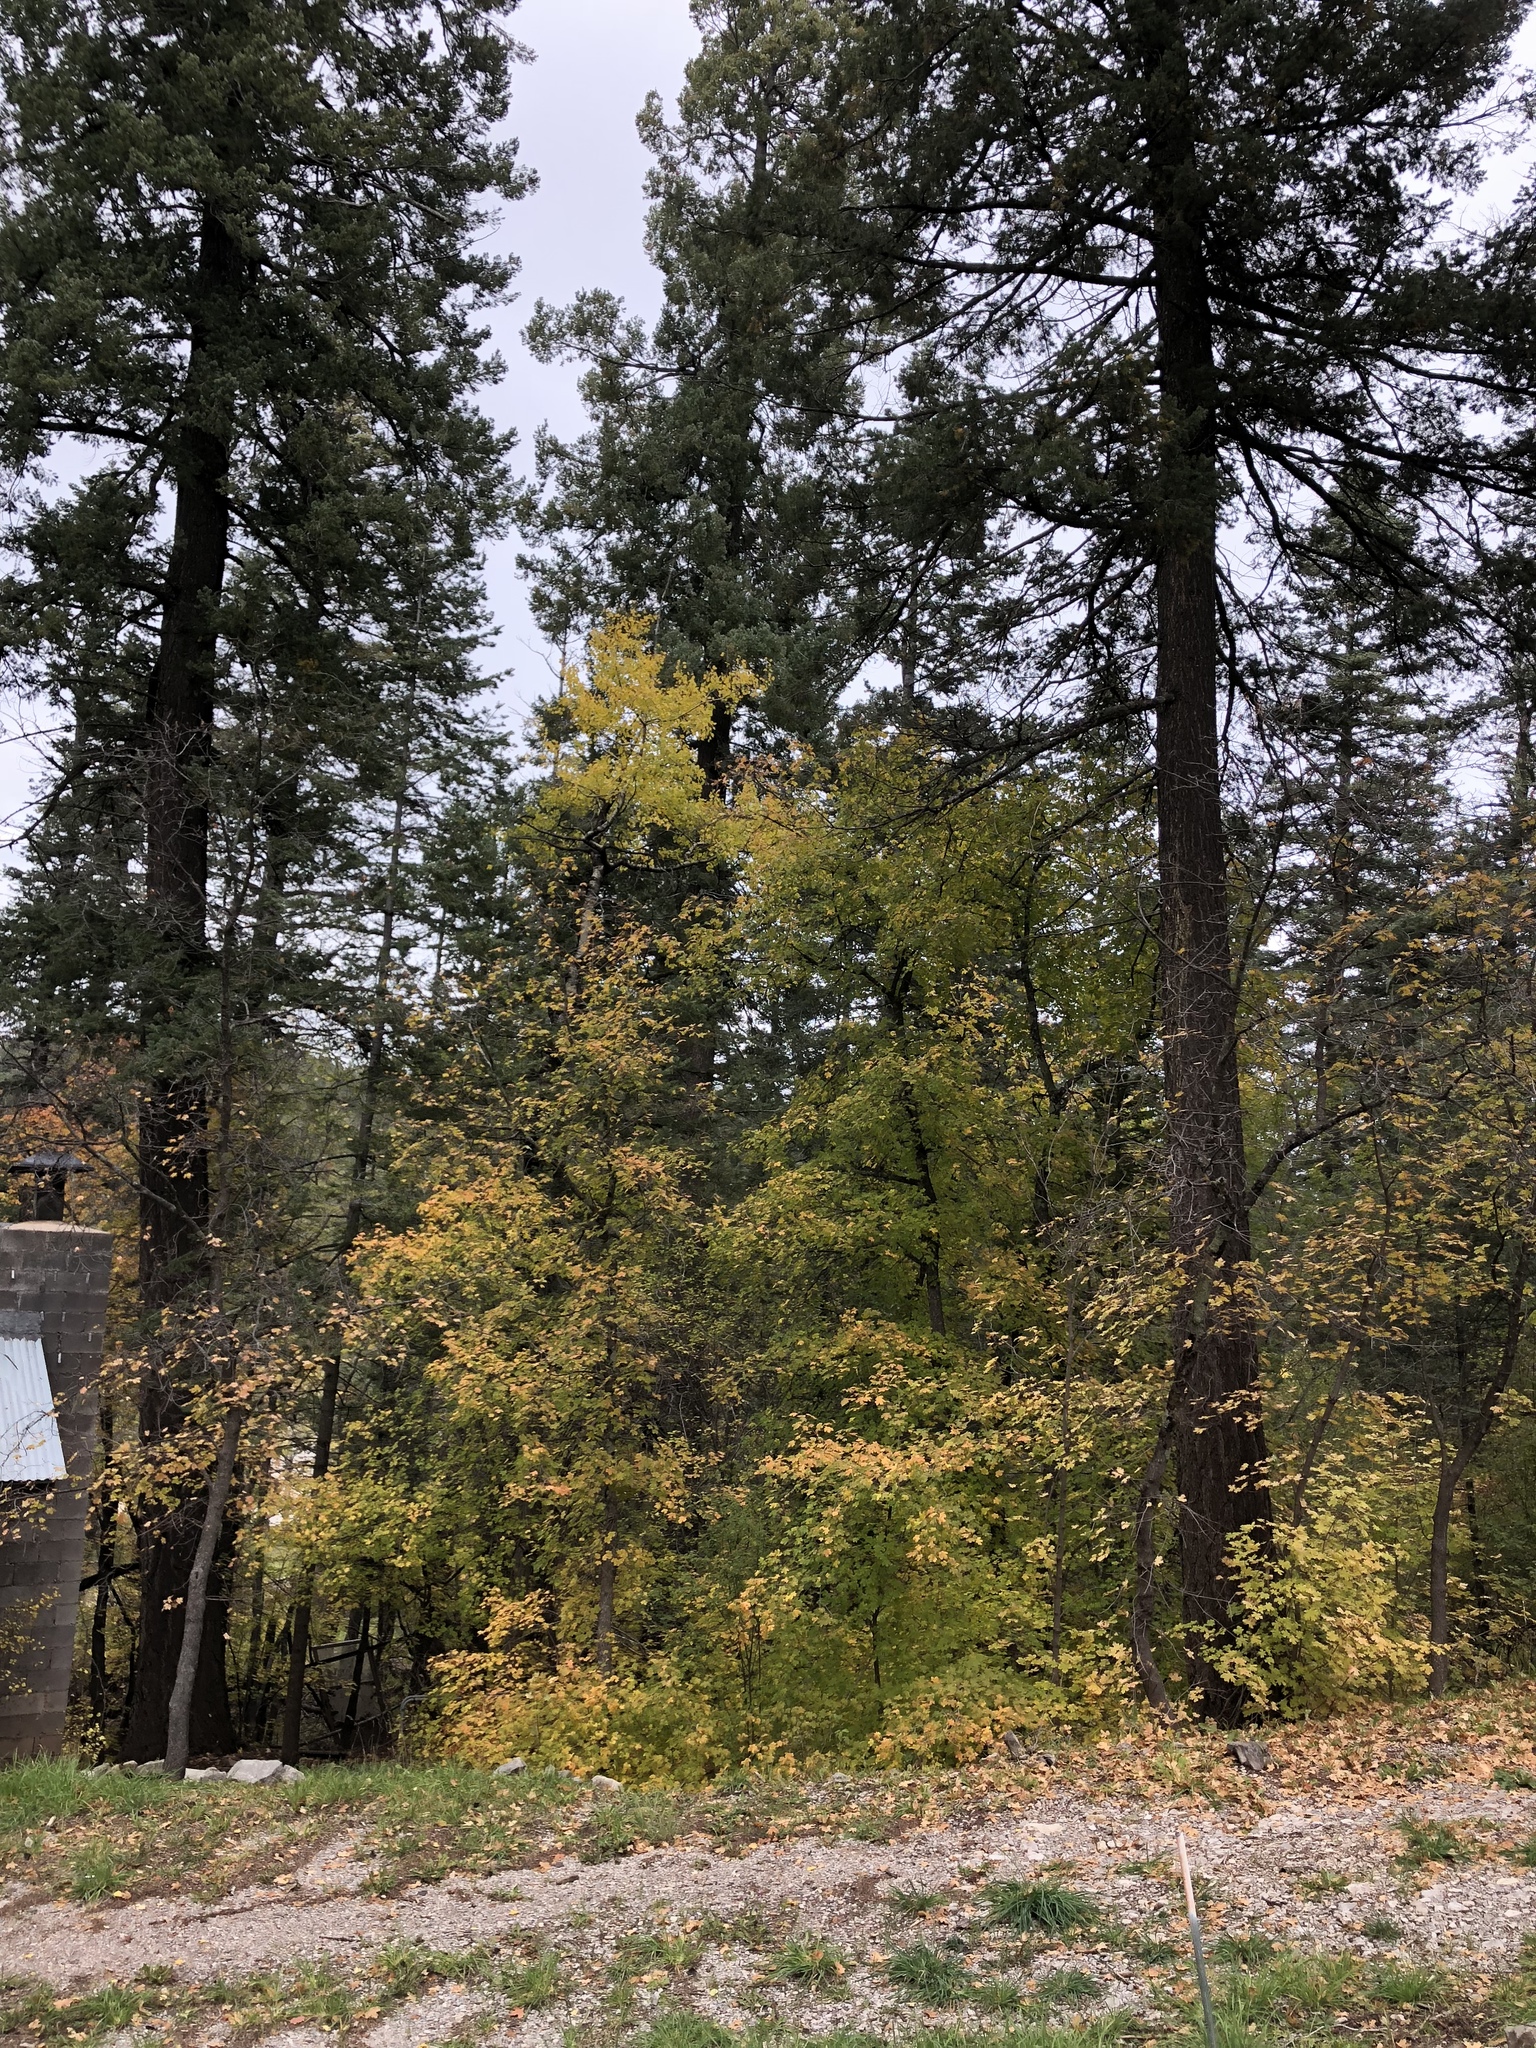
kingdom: Plantae
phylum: Tracheophyta
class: Magnoliopsida
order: Sapindales
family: Sapindaceae
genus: Acer
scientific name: Acer grandidentatum
